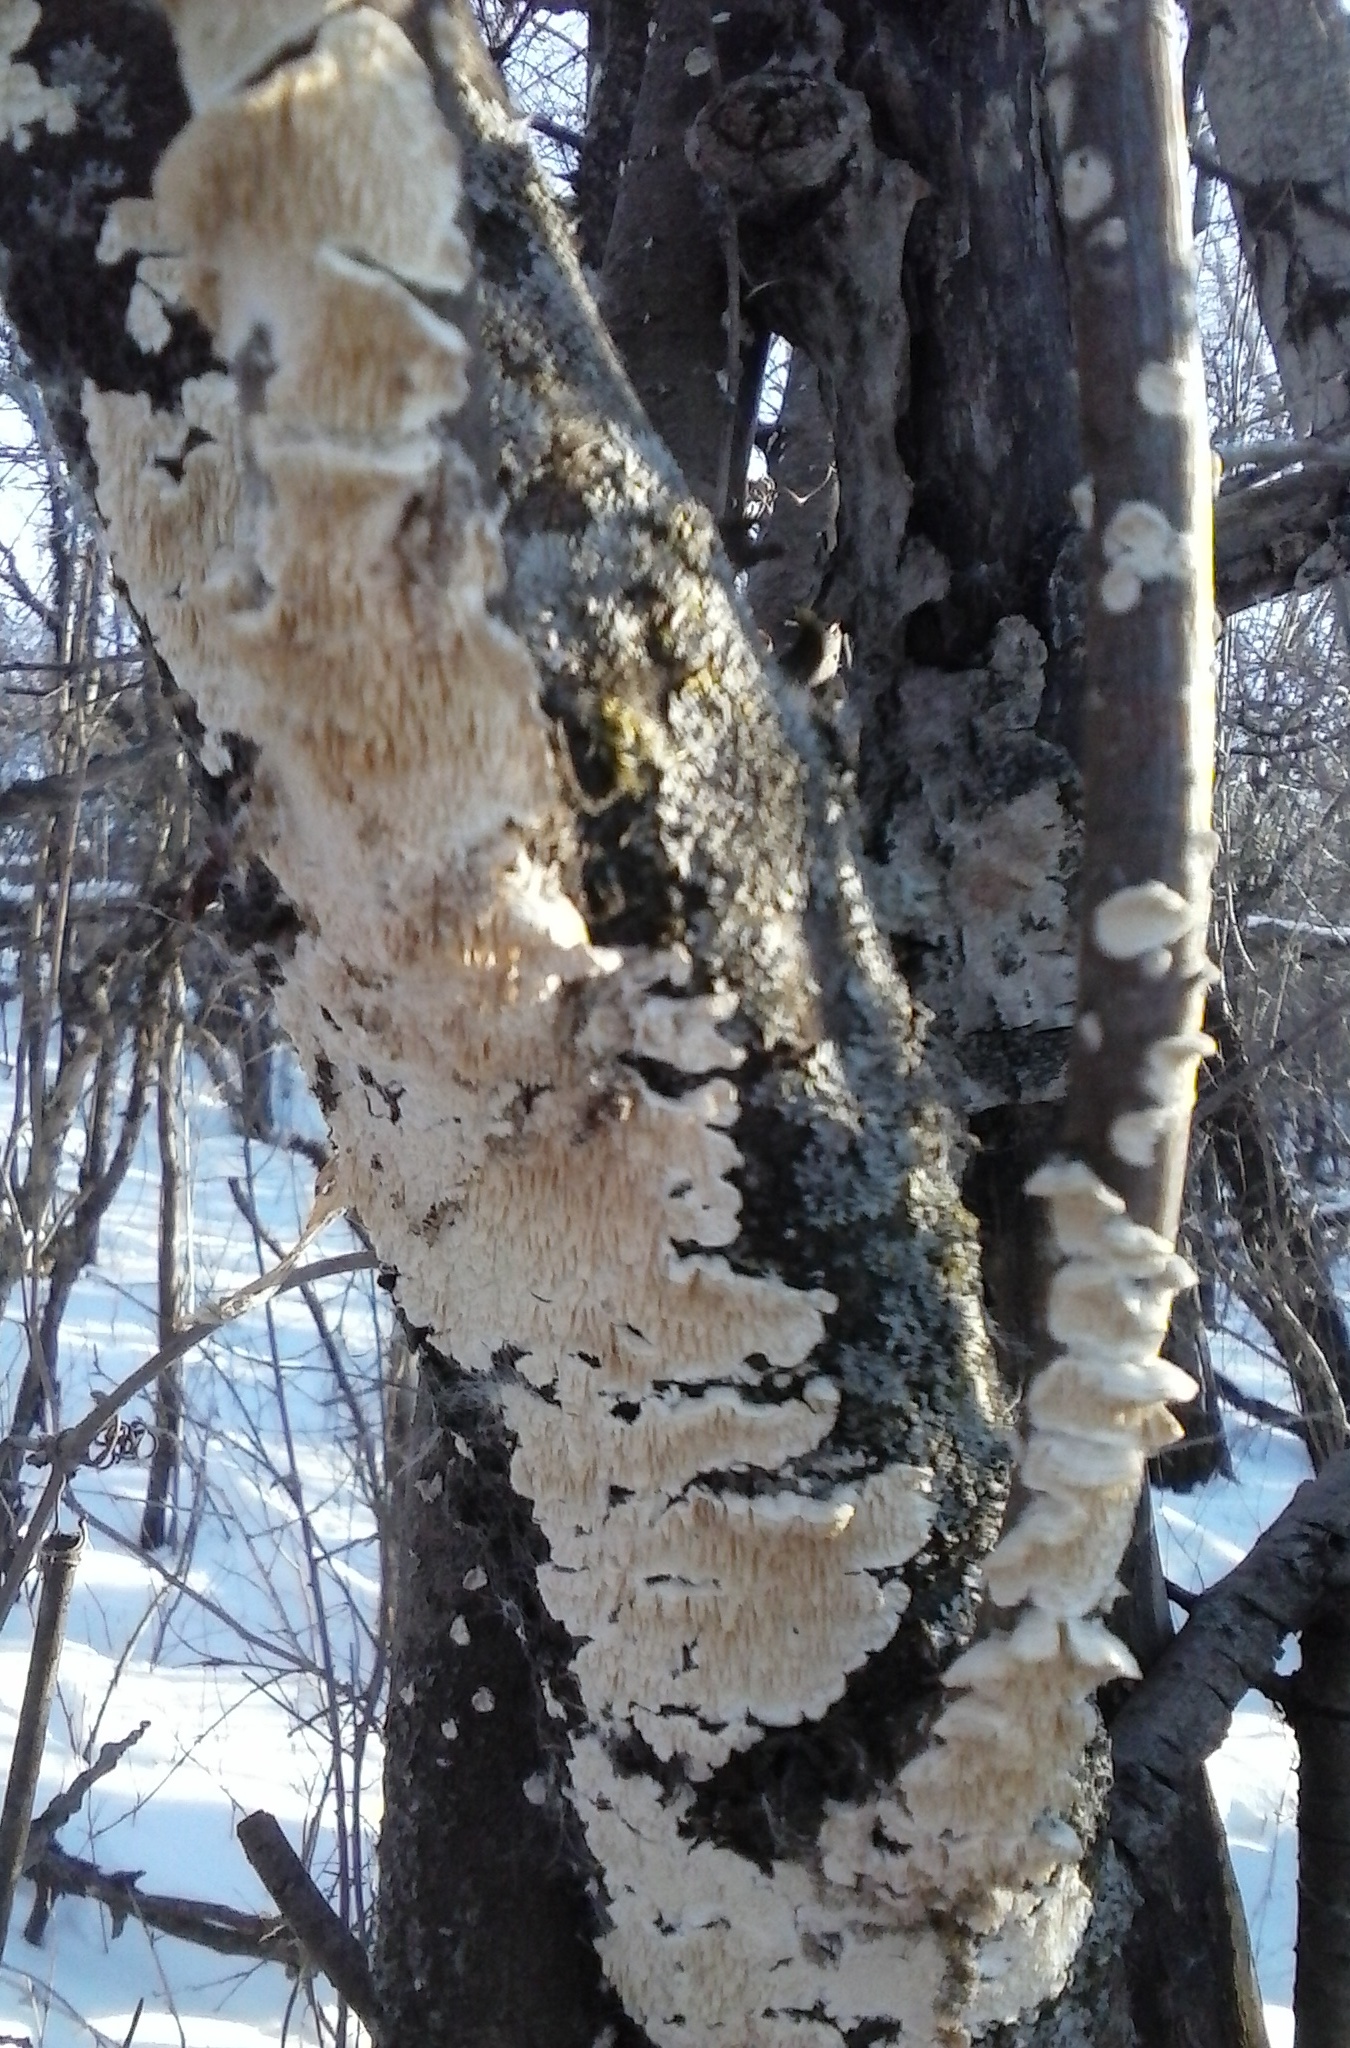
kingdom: Fungi
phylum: Basidiomycota
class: Agaricomycetes
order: Polyporales
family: Irpicaceae
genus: Irpex
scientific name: Irpex lacteus
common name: Milk-white toothed polypore
